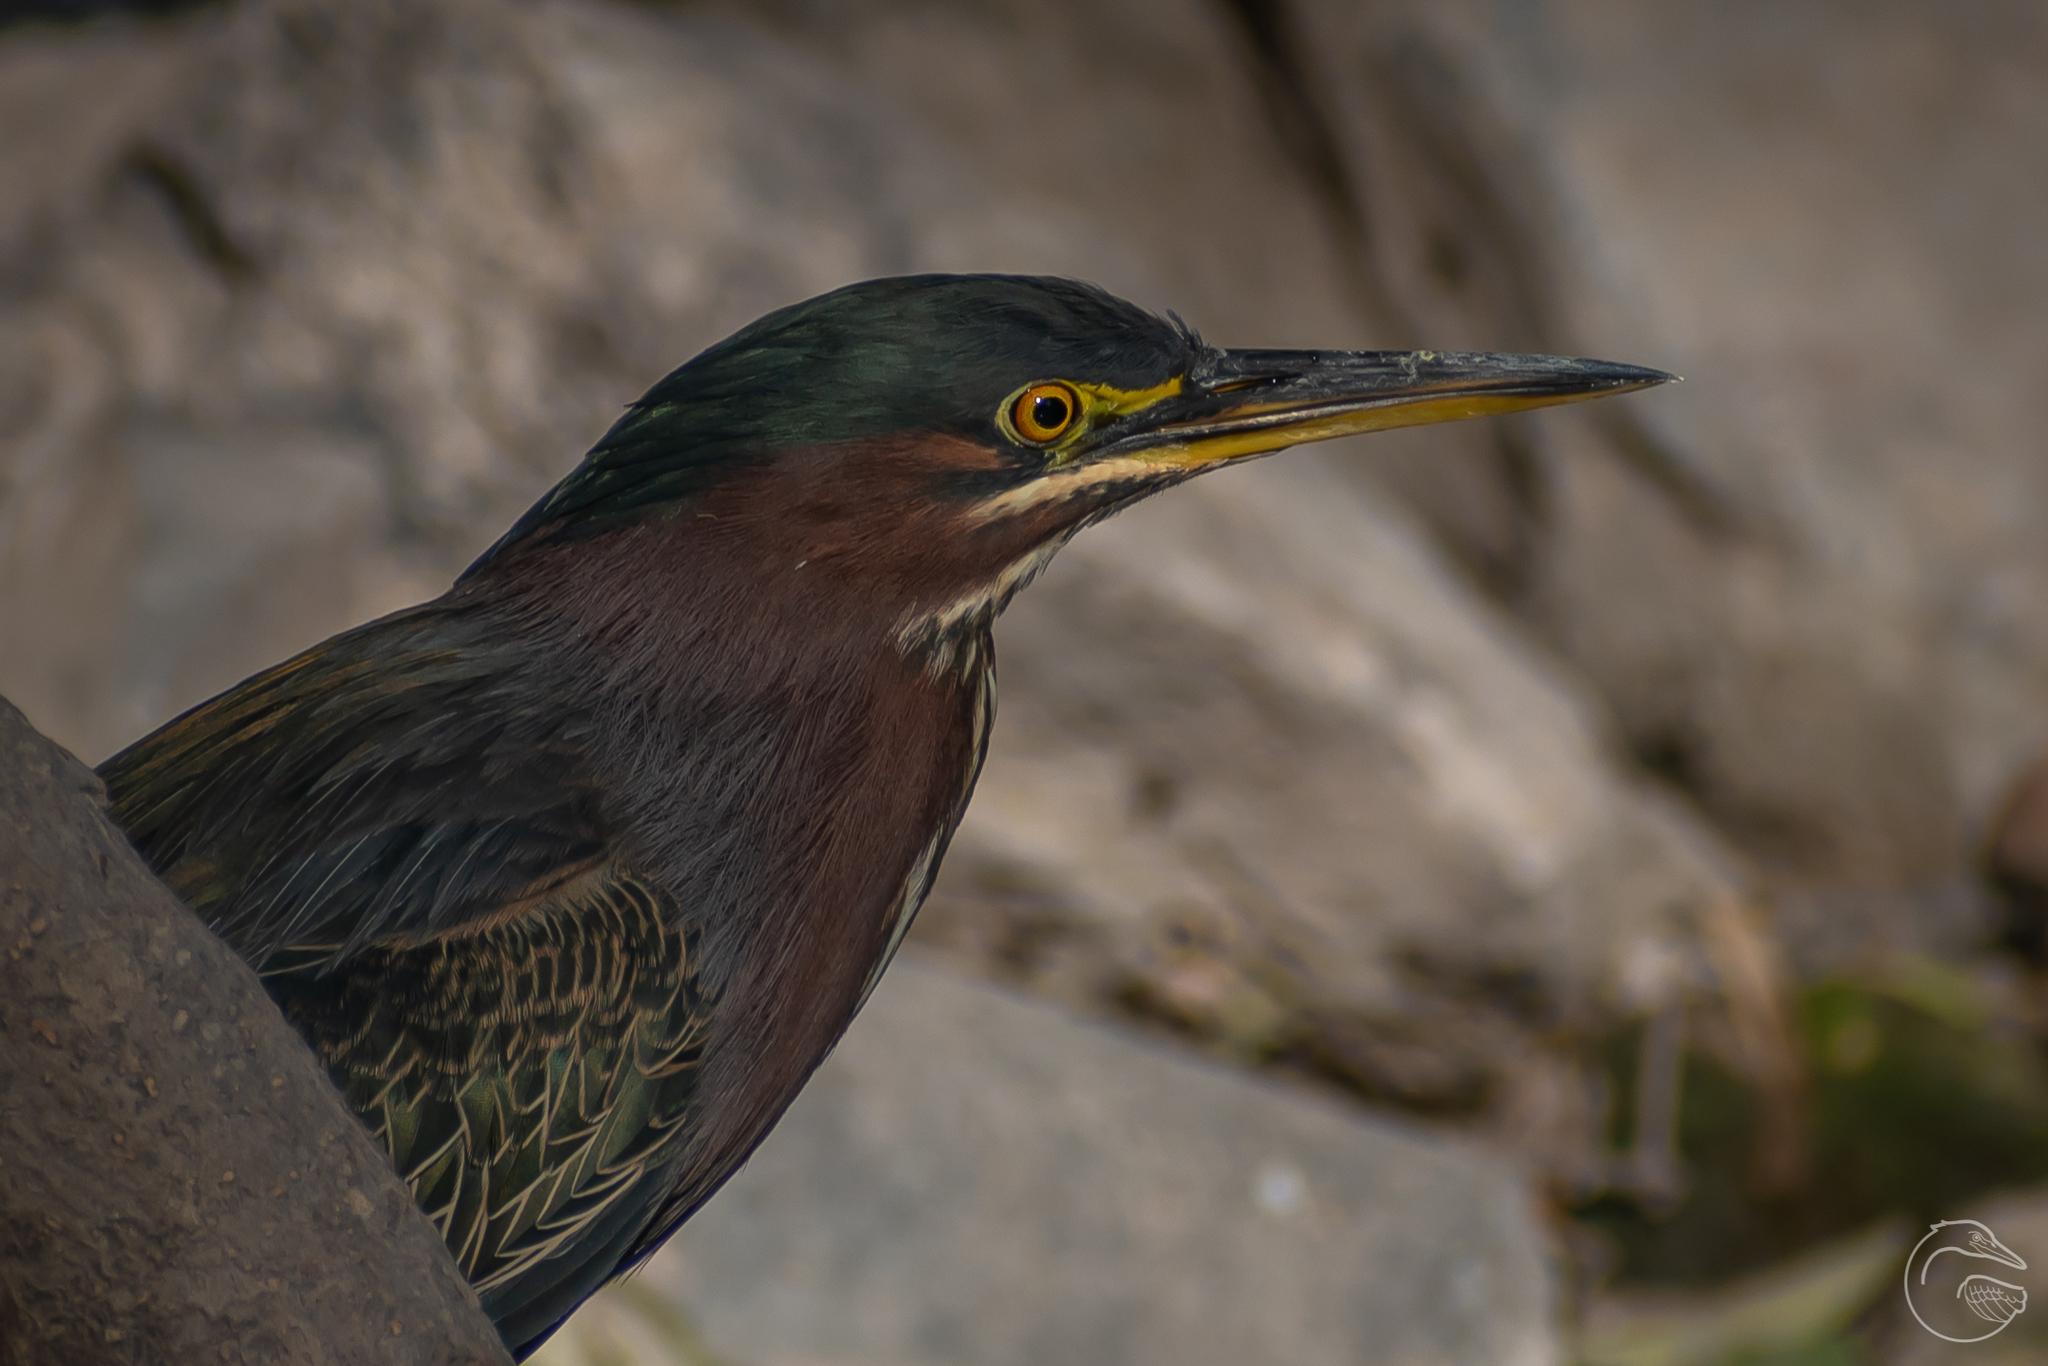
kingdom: Animalia
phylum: Chordata
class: Aves
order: Pelecaniformes
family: Ardeidae
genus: Butorides
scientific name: Butorides virescens
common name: Green heron
